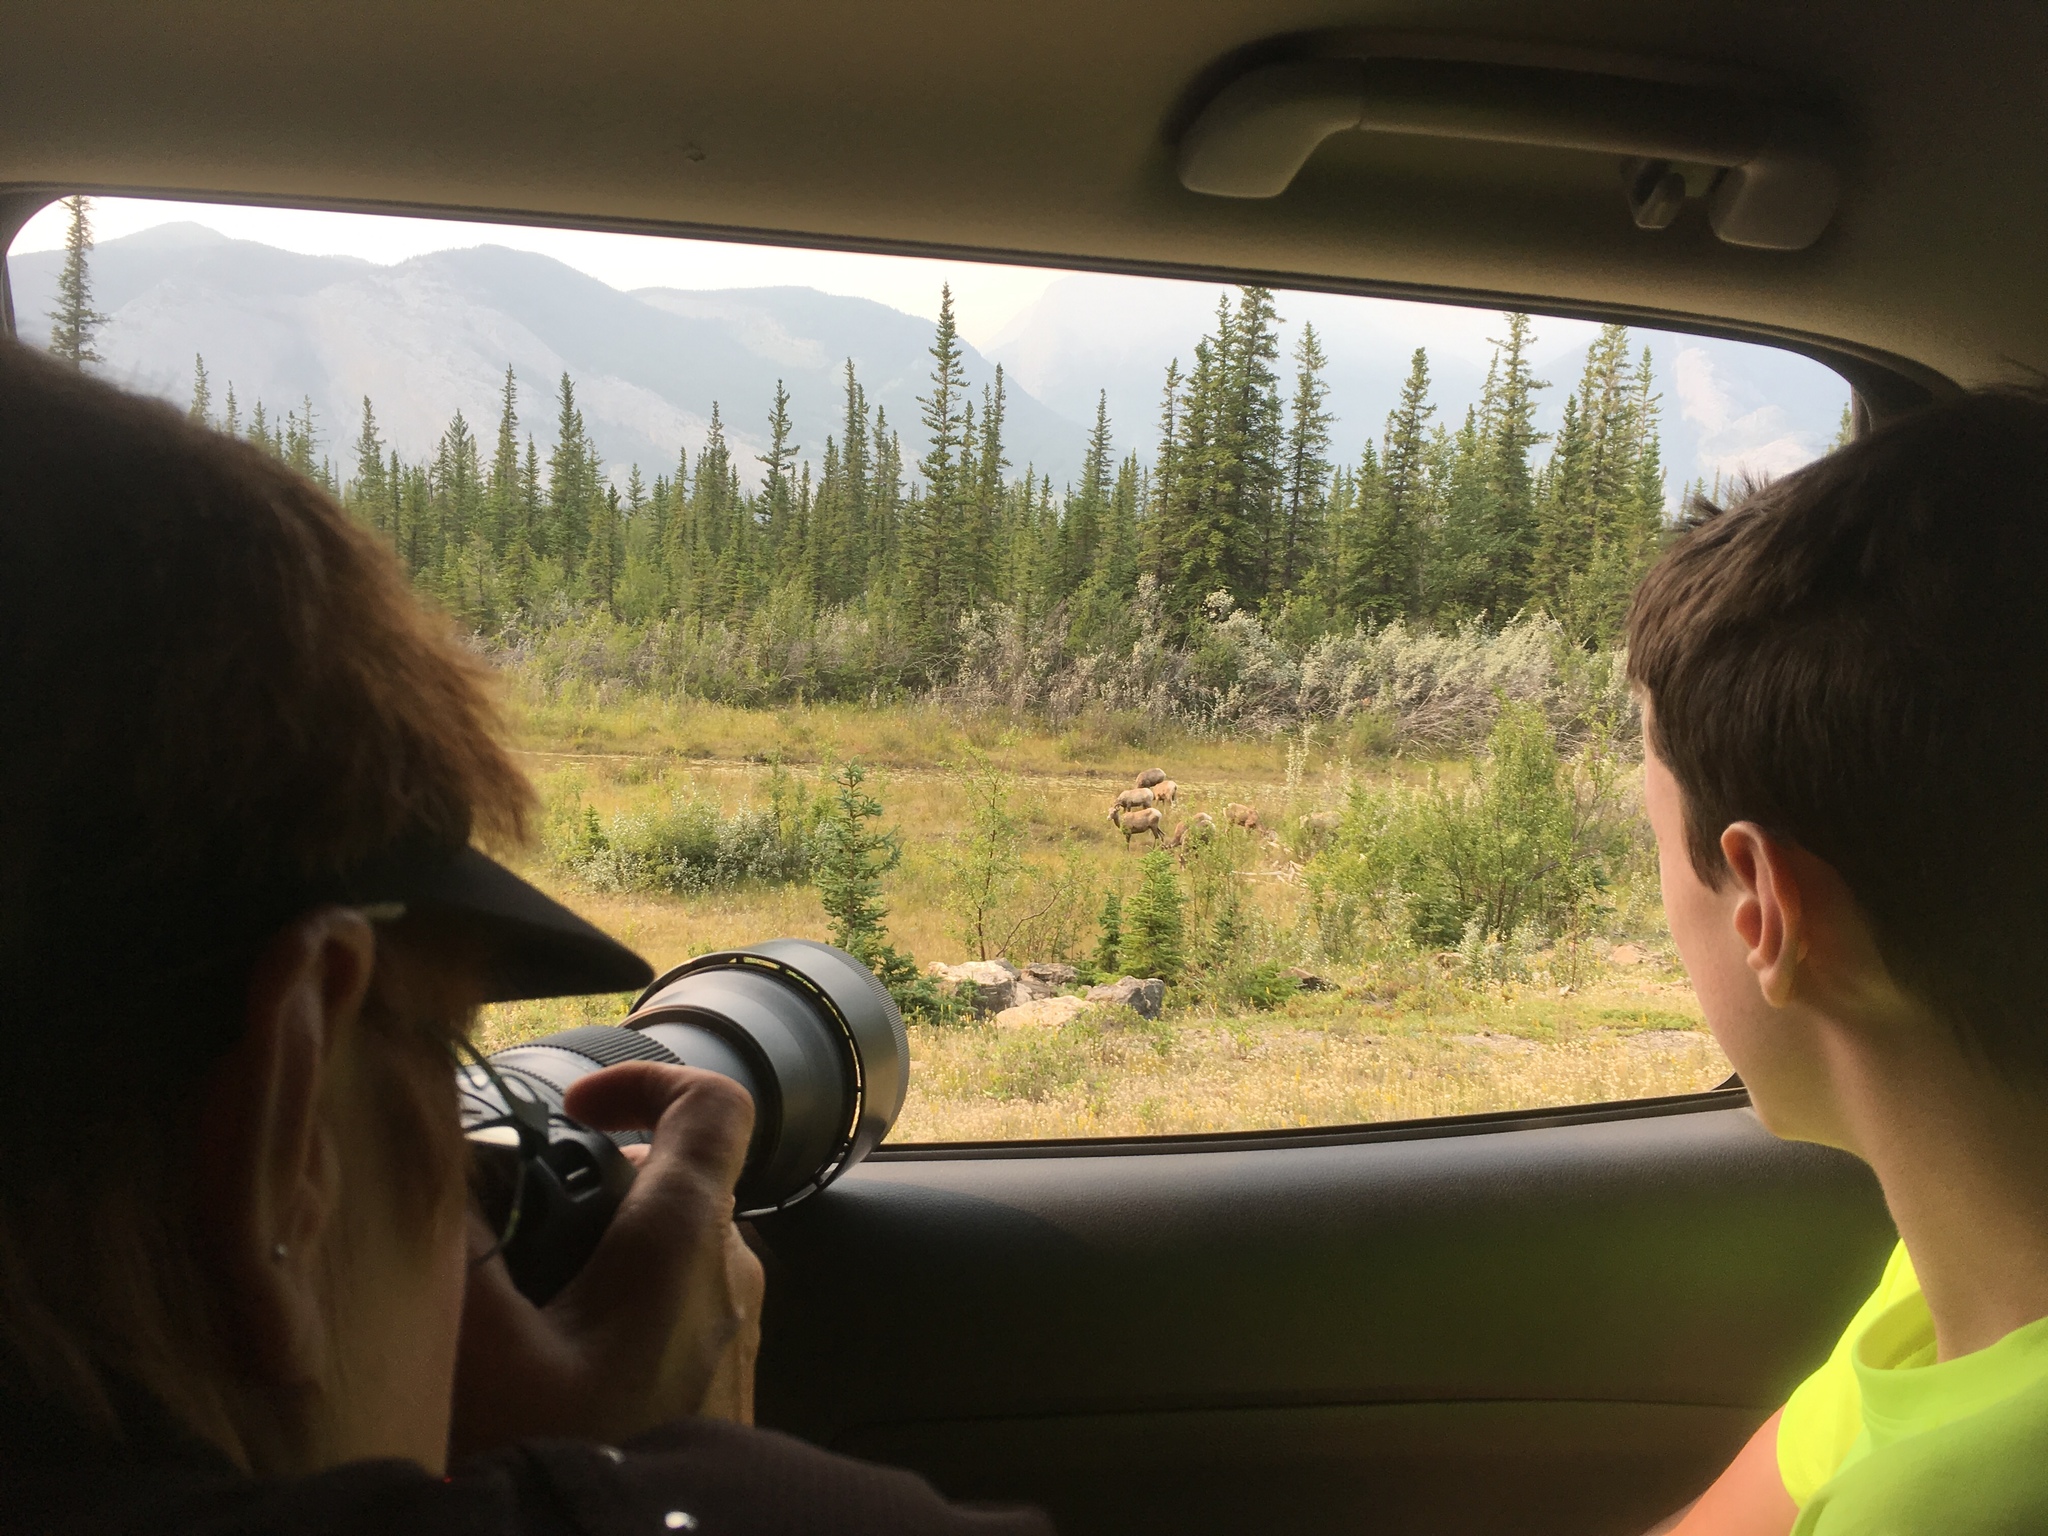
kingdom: Animalia
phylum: Chordata
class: Mammalia
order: Artiodactyla
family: Bovidae
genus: Ovis
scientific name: Ovis canadensis
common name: Bighorn sheep
